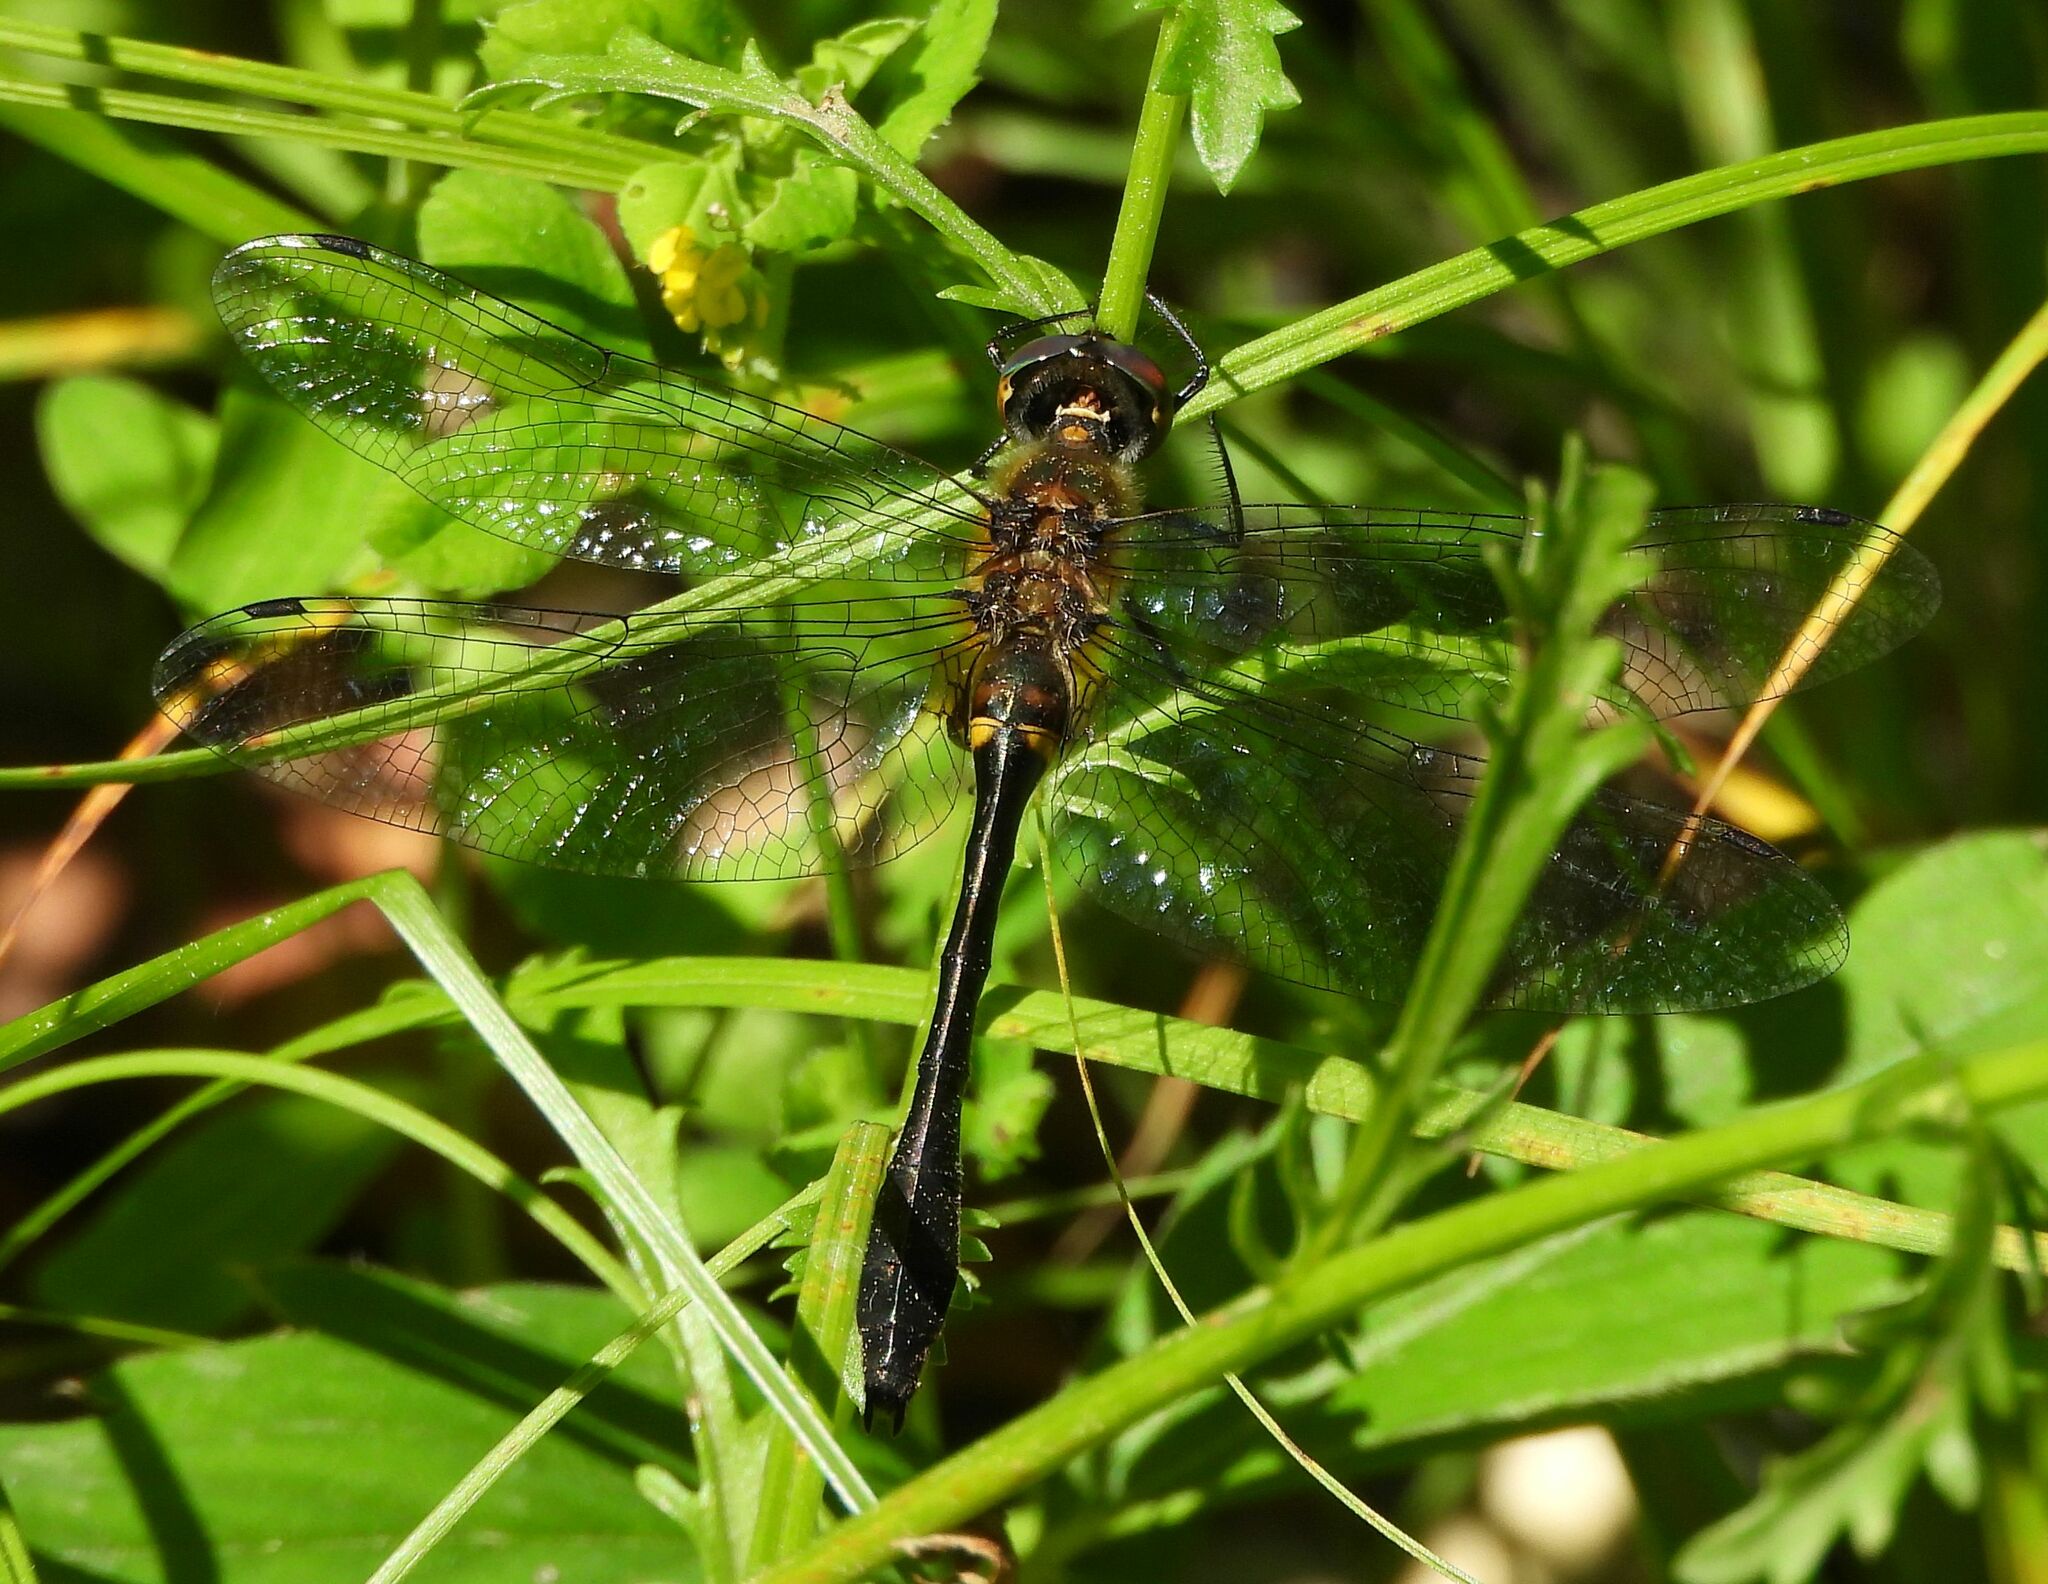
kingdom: Animalia
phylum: Arthropoda
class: Insecta
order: Odonata
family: Corduliidae
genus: Dorocordulia
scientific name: Dorocordulia libera
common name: Racket-tailed emerald
